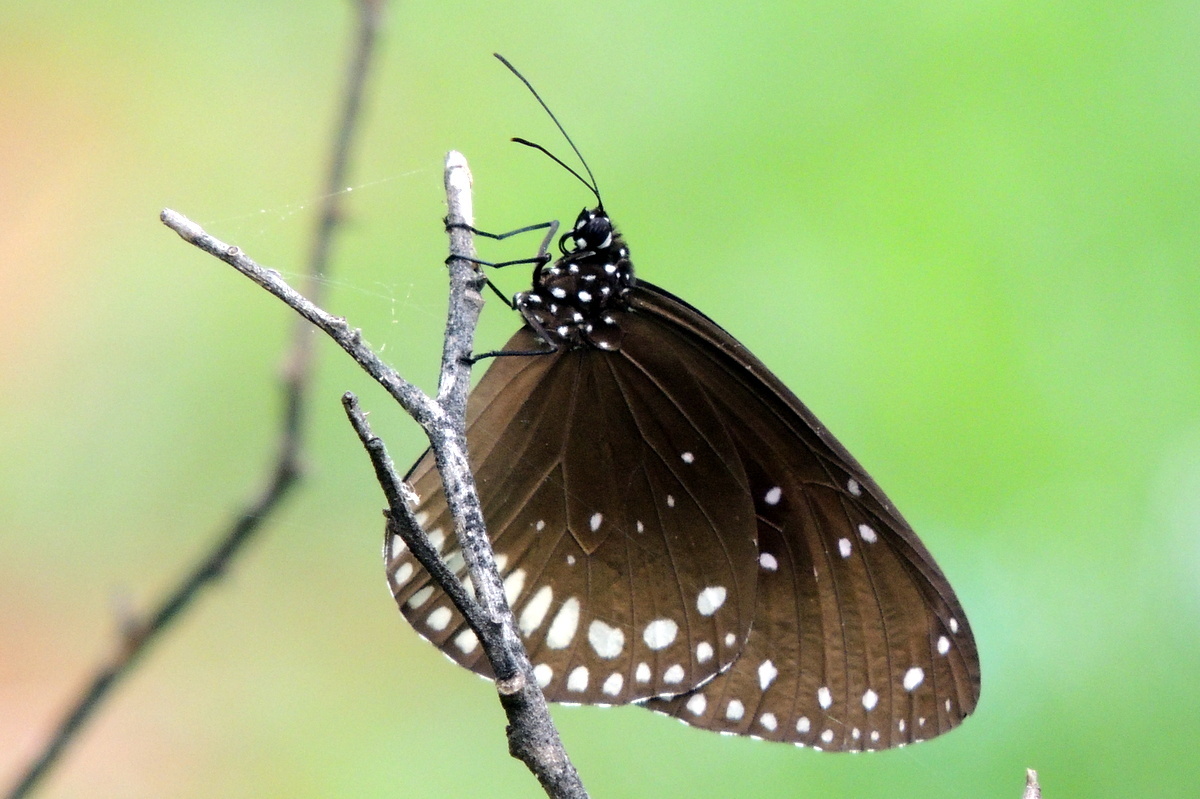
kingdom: Animalia
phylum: Arthropoda
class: Insecta
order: Lepidoptera
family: Nymphalidae
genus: Euploea
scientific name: Euploea sylvester
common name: Double-branded crow butterfly
